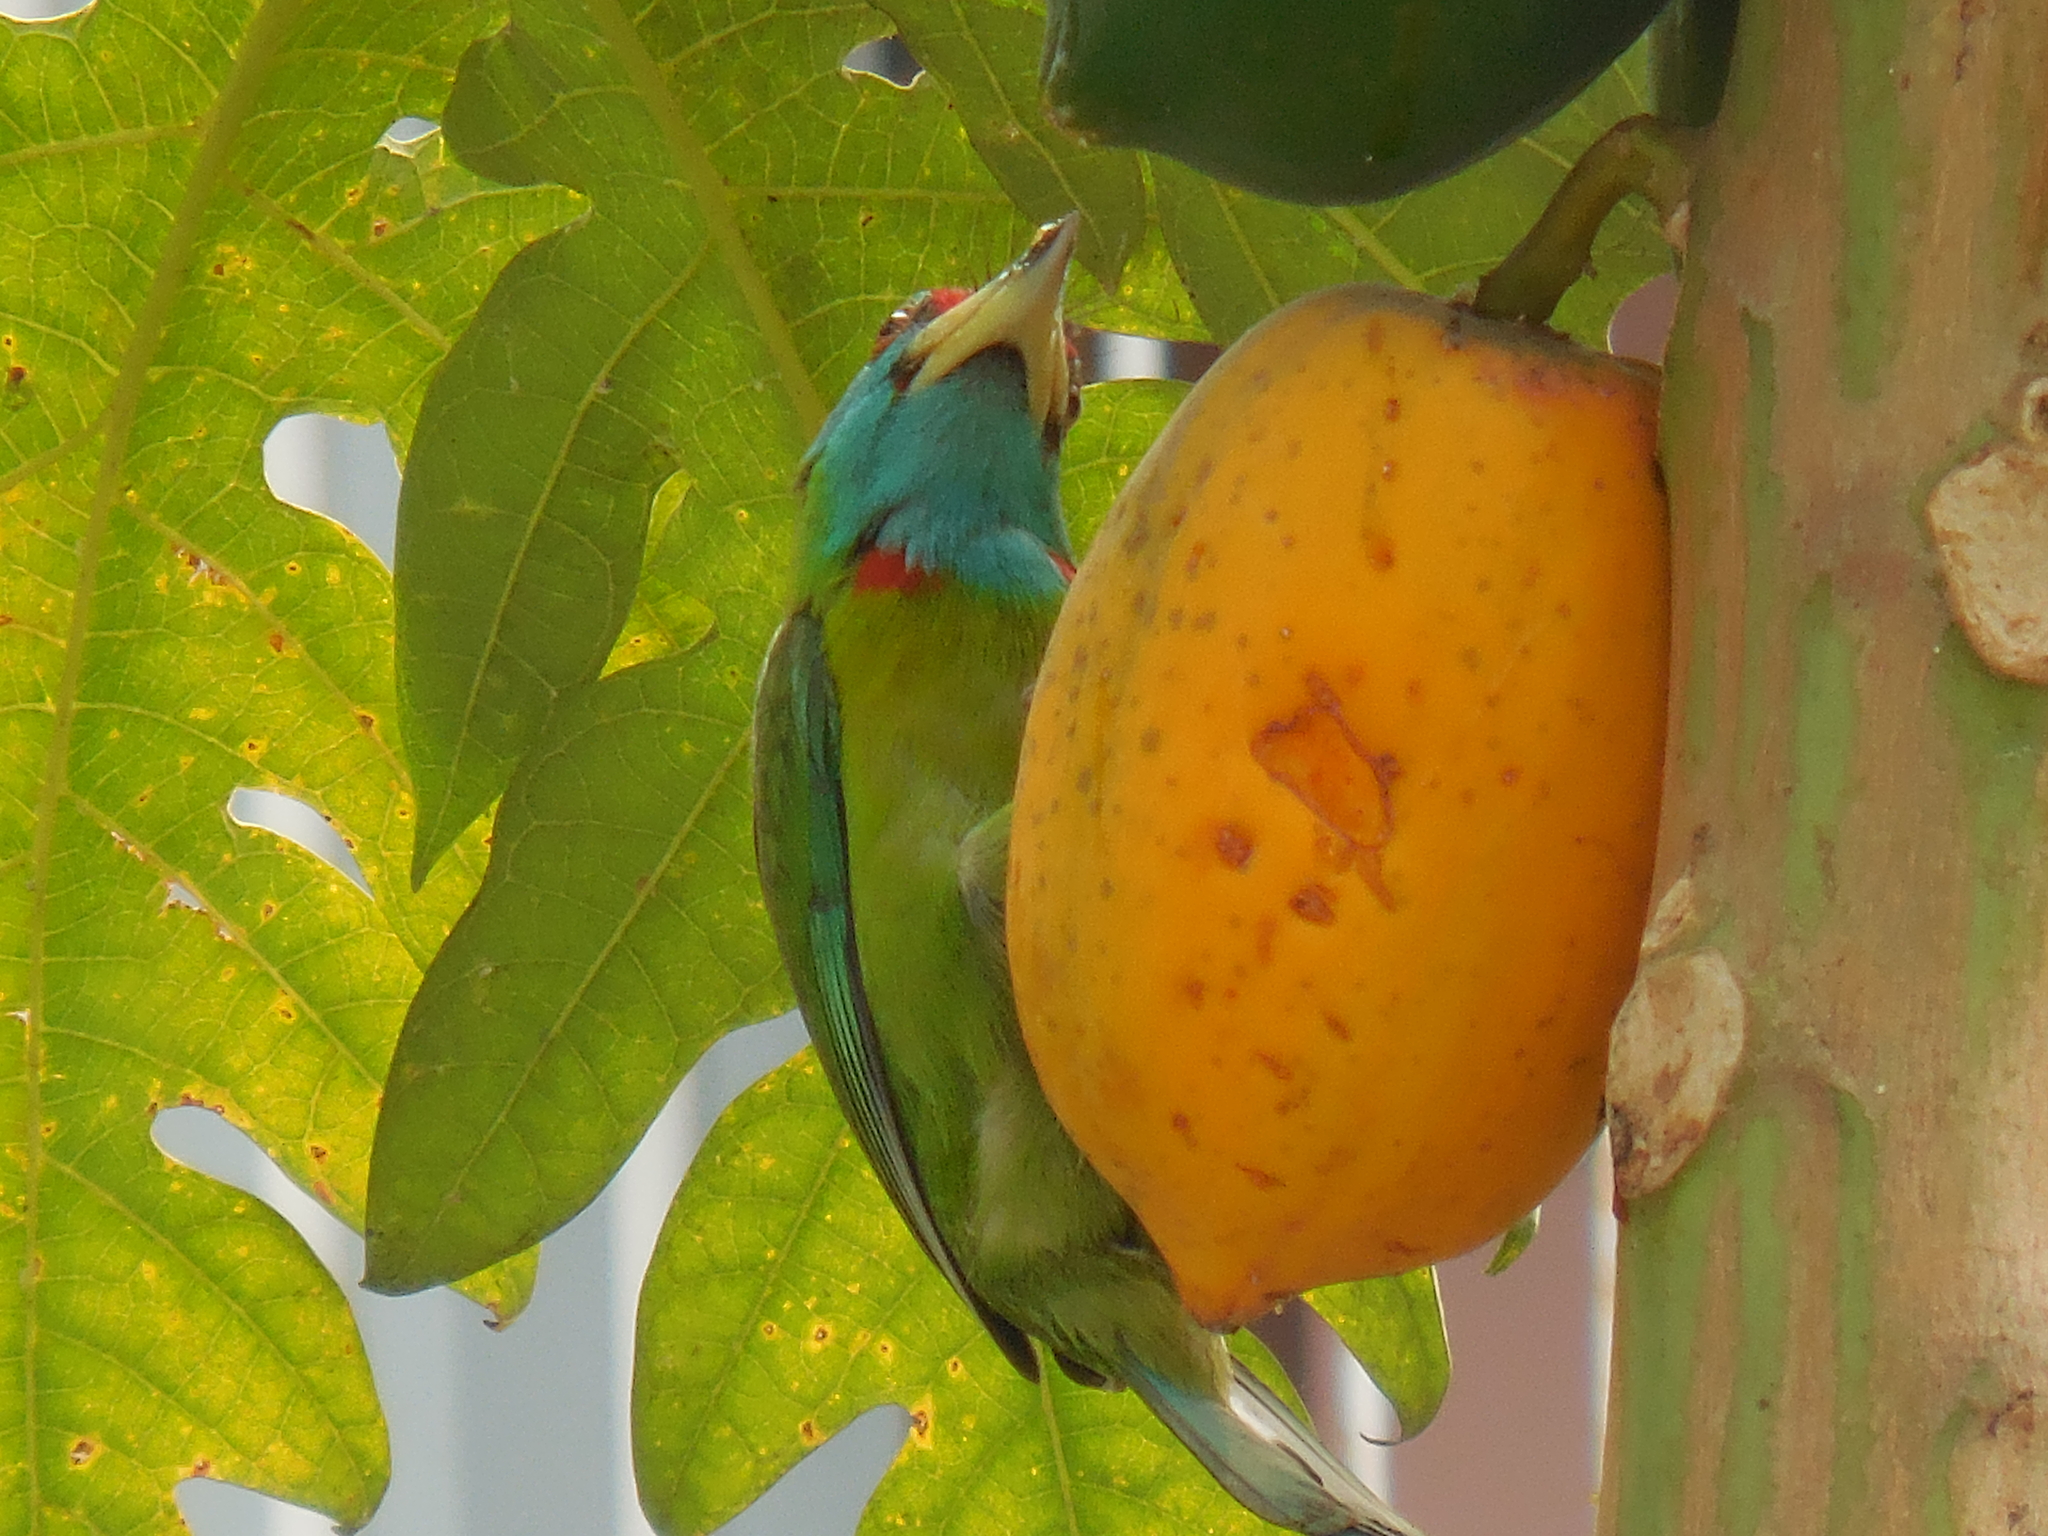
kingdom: Animalia
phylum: Chordata
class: Aves
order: Piciformes
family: Megalaimidae
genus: Psilopogon
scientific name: Psilopogon asiaticus
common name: Blue-throated barbet
